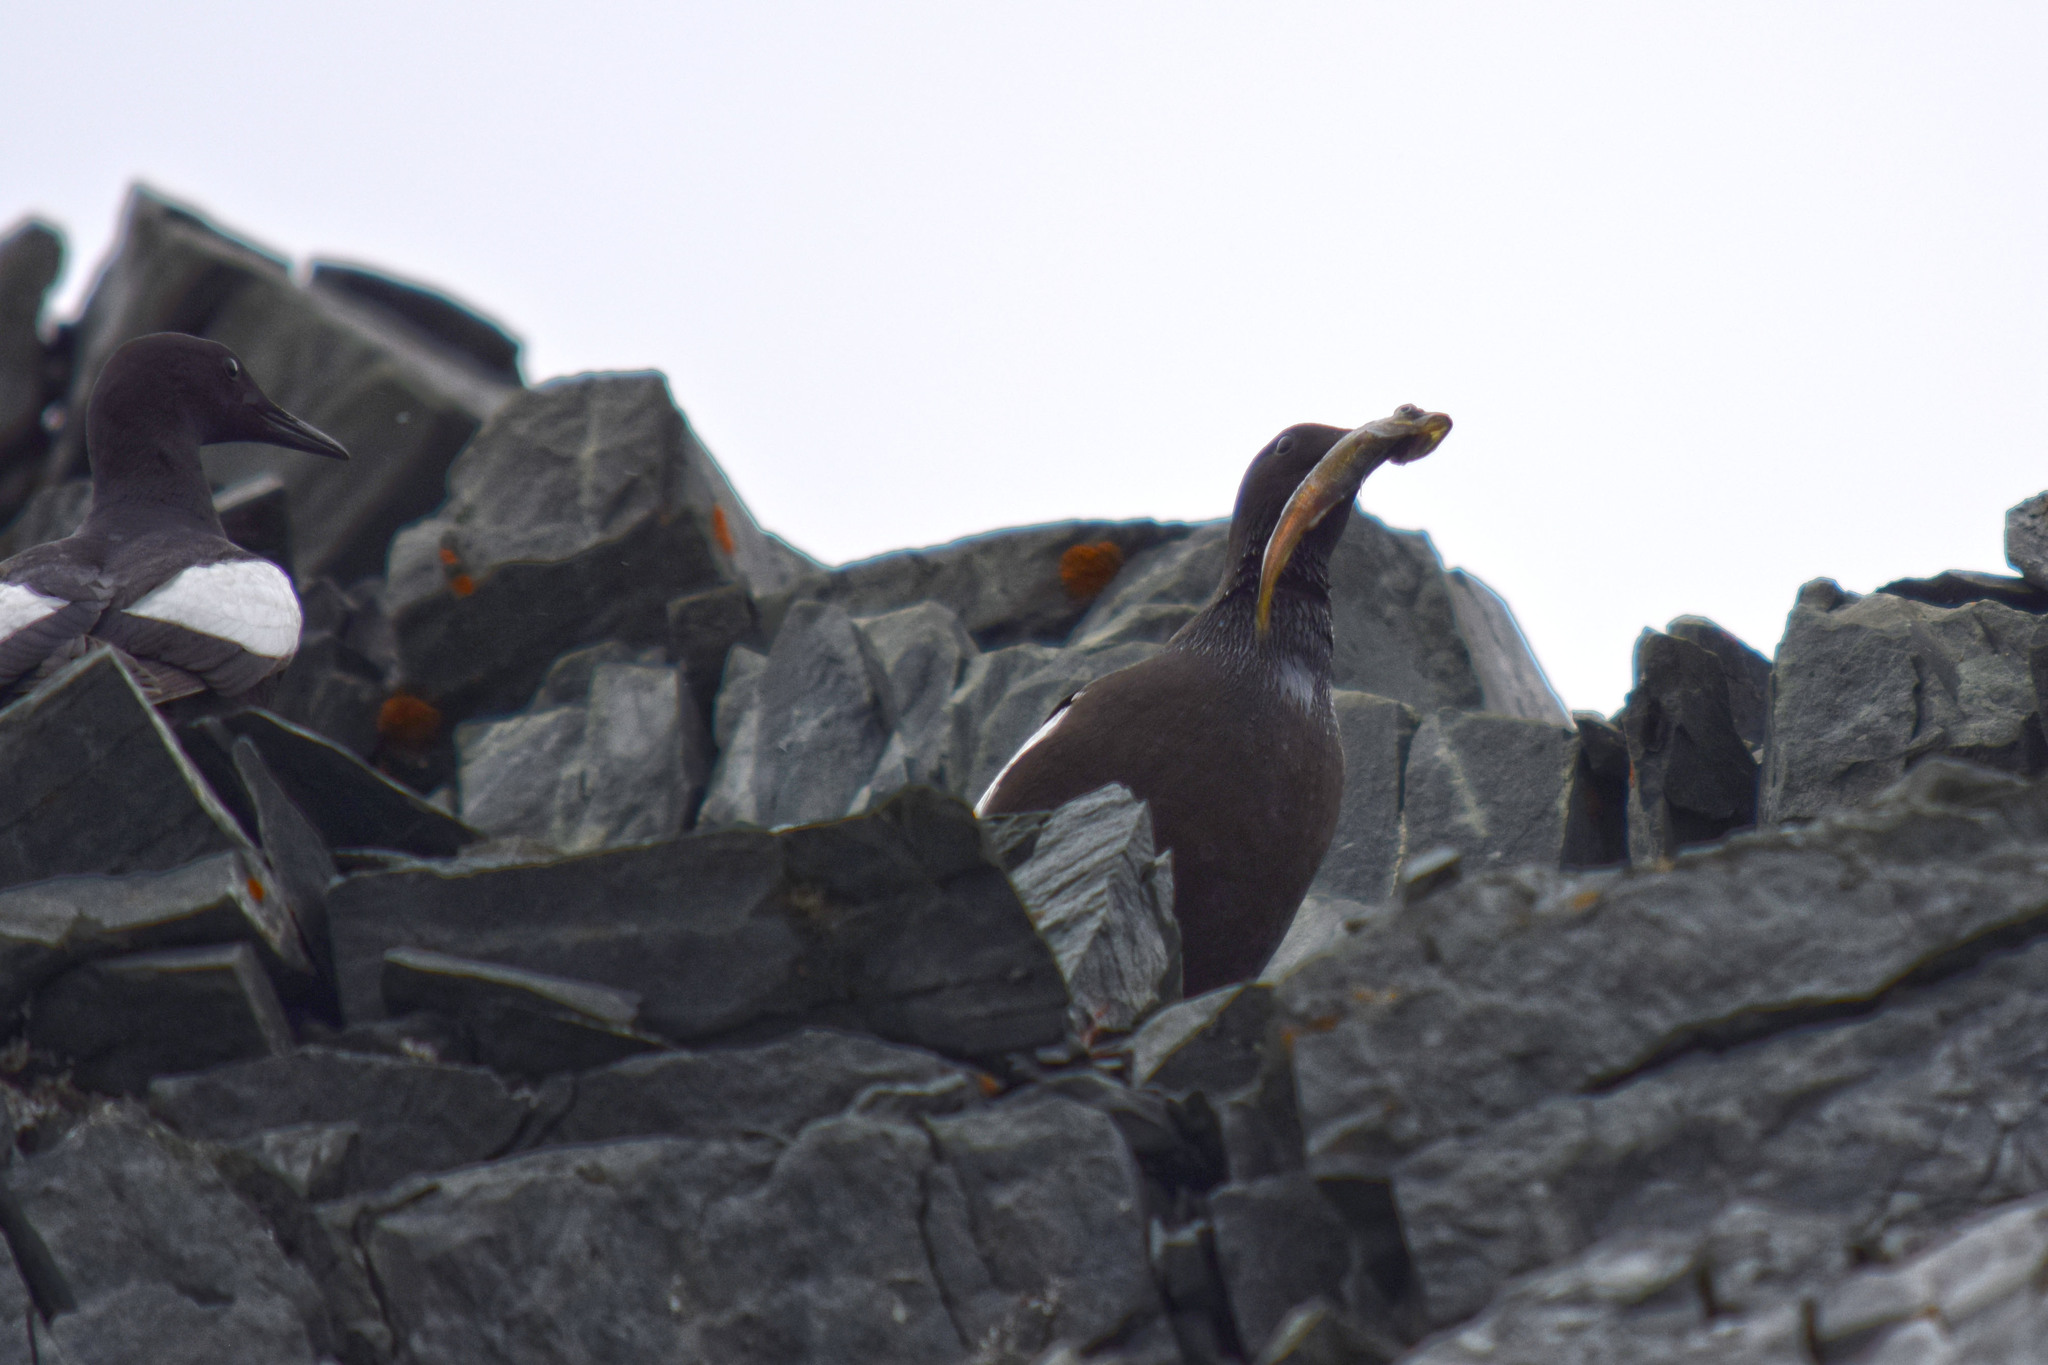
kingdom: Animalia
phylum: Chordata
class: Aves
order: Charadriiformes
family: Alcidae
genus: Cepphus
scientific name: Cepphus grylle
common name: Black guillemot
